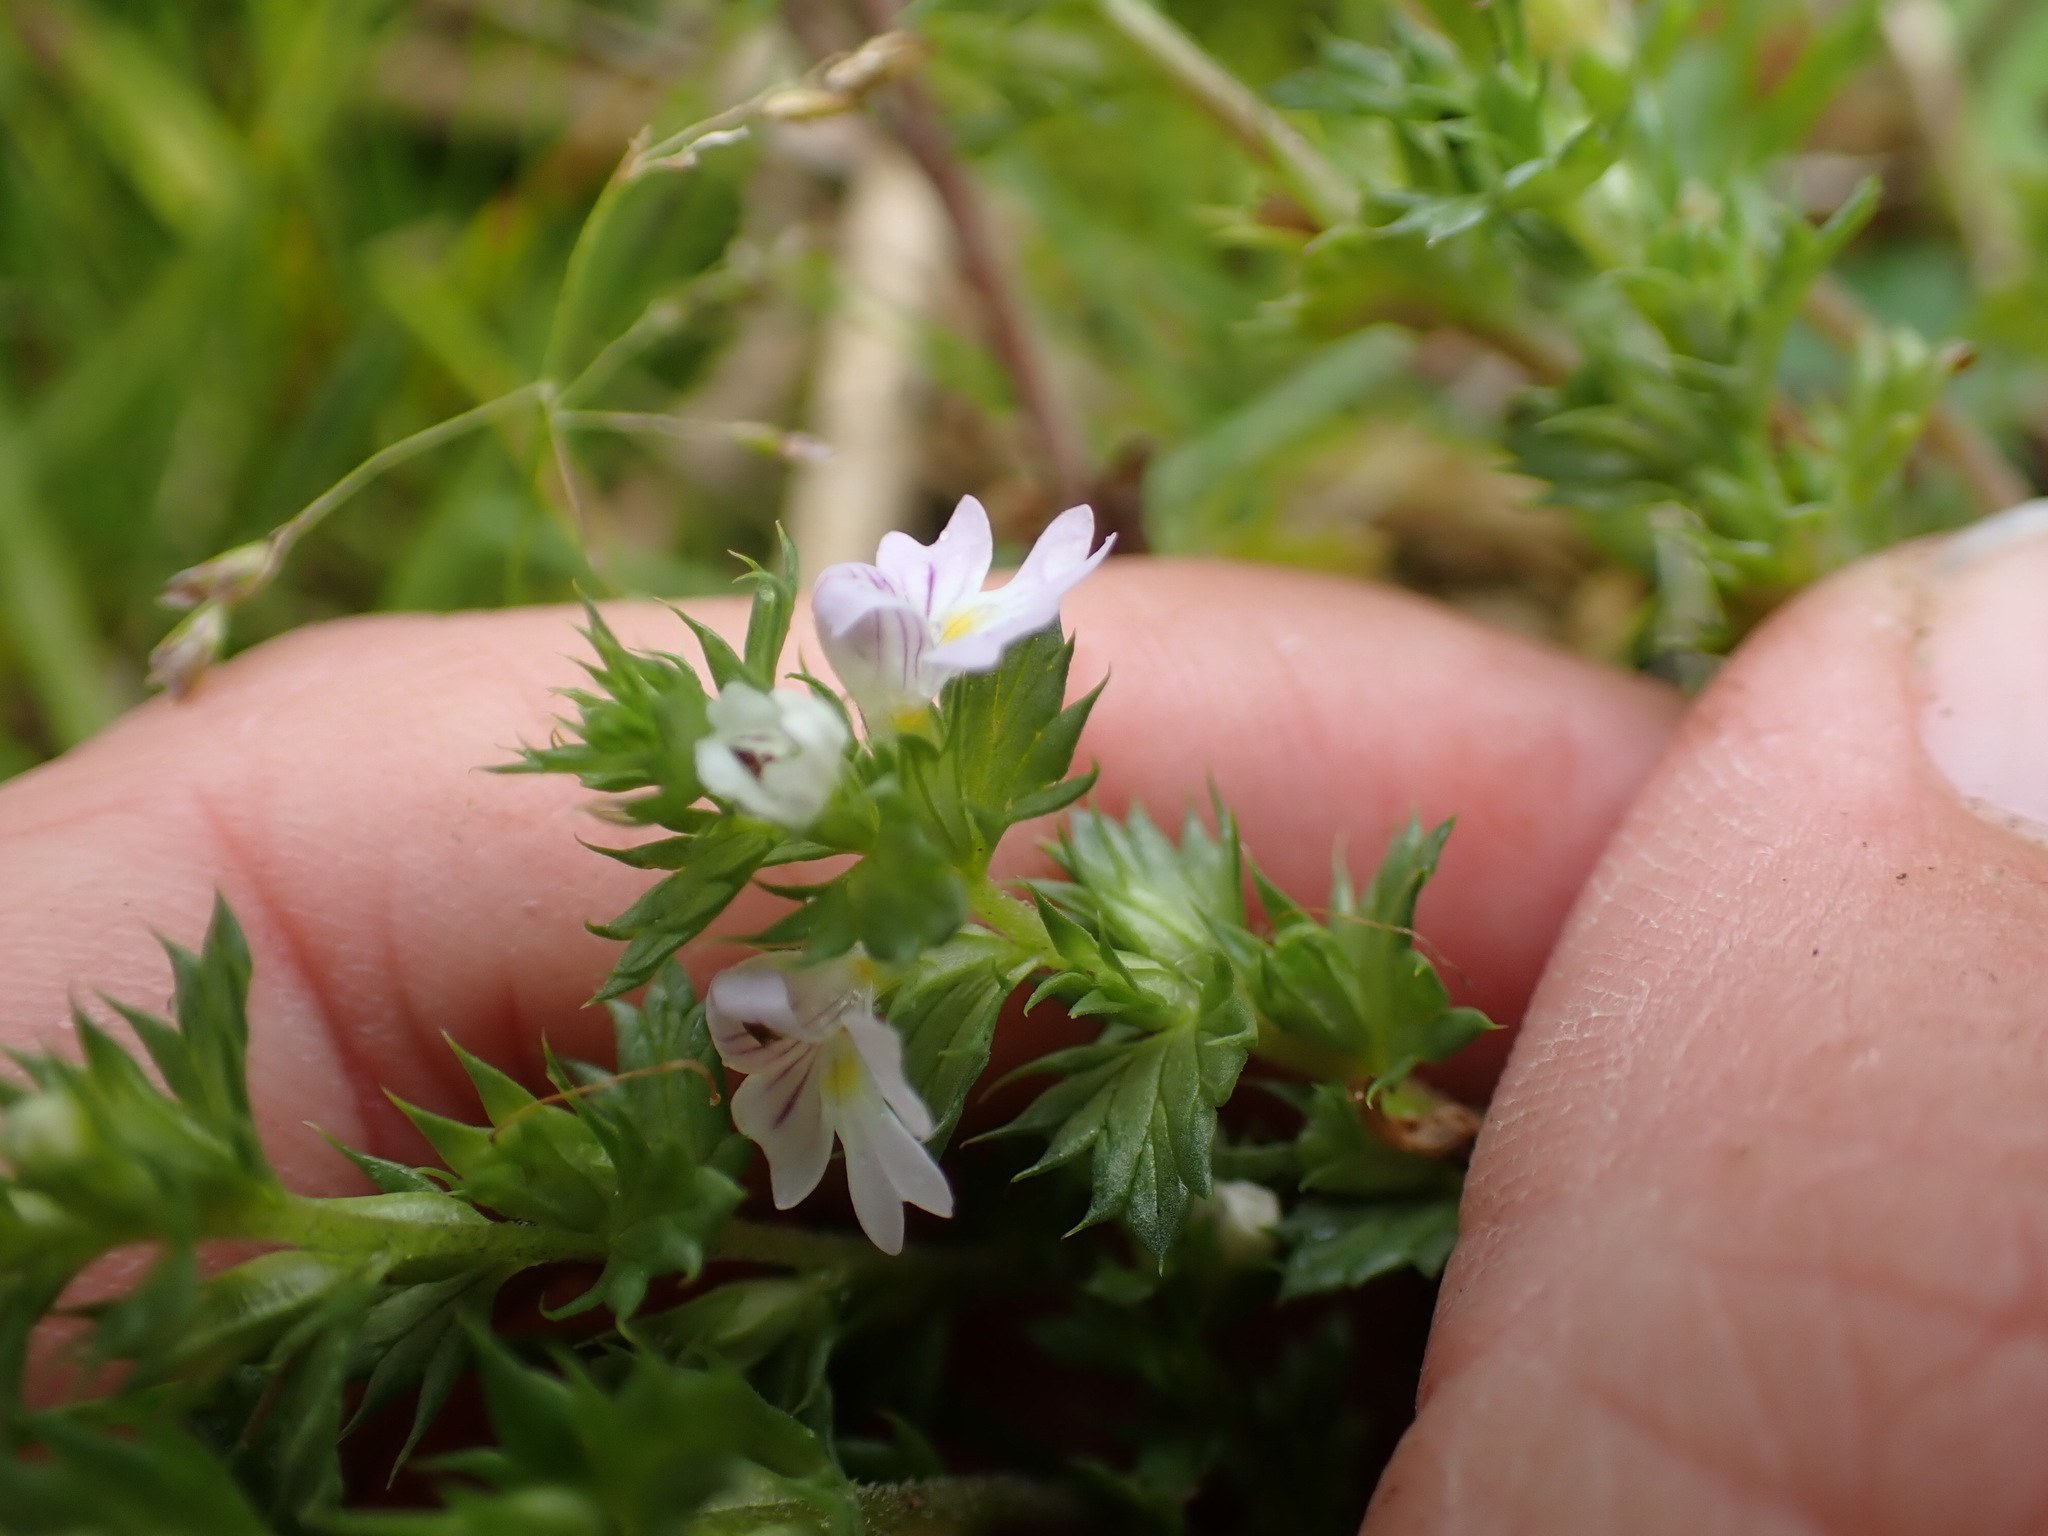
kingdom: Plantae
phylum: Tracheophyta
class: Magnoliopsida
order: Lamiales
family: Orobanchaceae
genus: Euphrasia
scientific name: Euphrasia nemorosa
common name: Common eyebright
